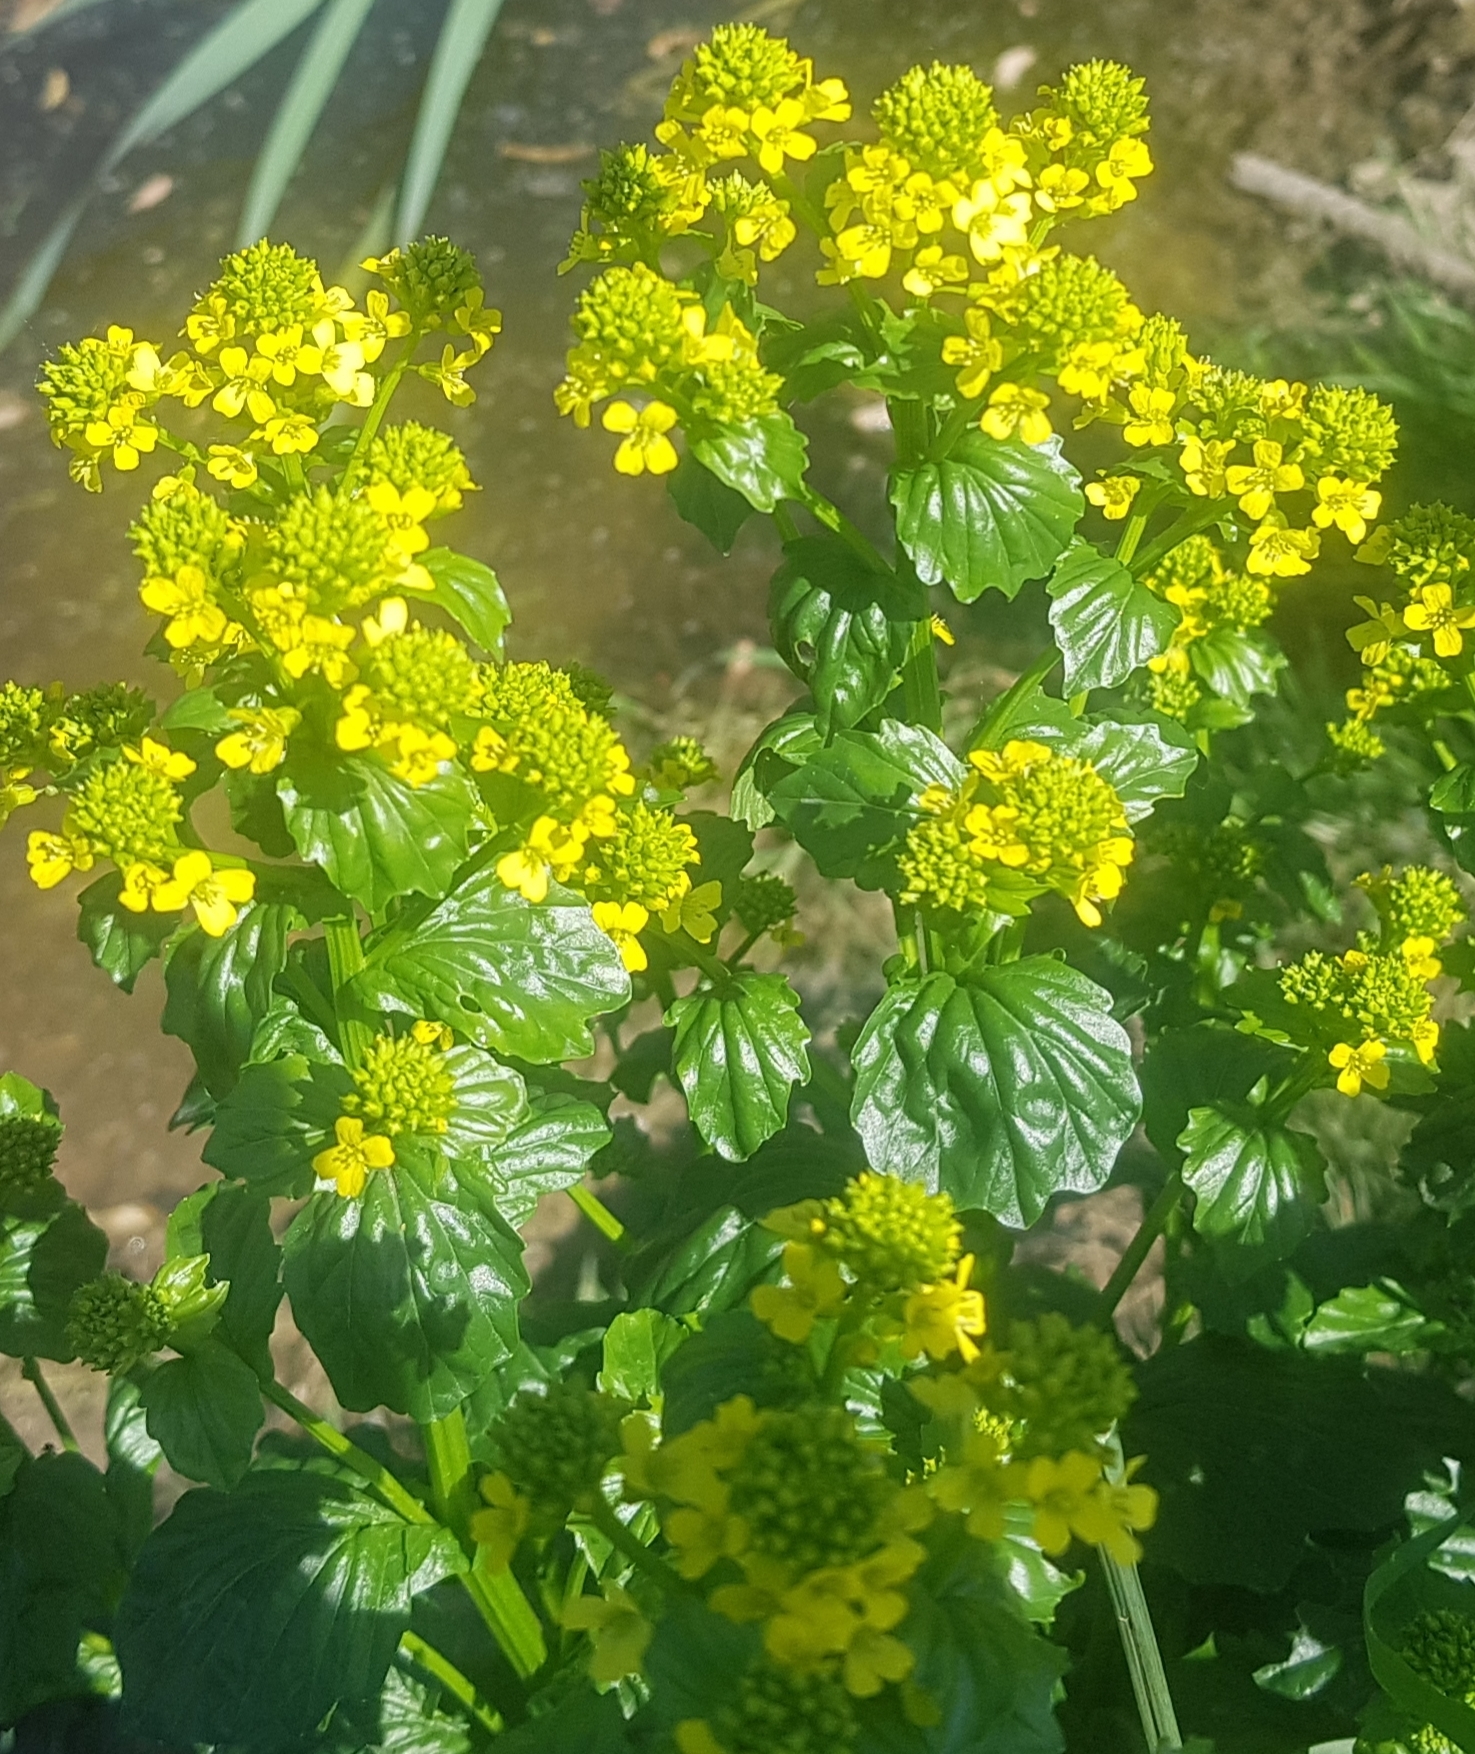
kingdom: Plantae
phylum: Tracheophyta
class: Magnoliopsida
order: Brassicales
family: Brassicaceae
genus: Barbarea
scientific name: Barbarea vulgaris
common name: Cressy-greens
